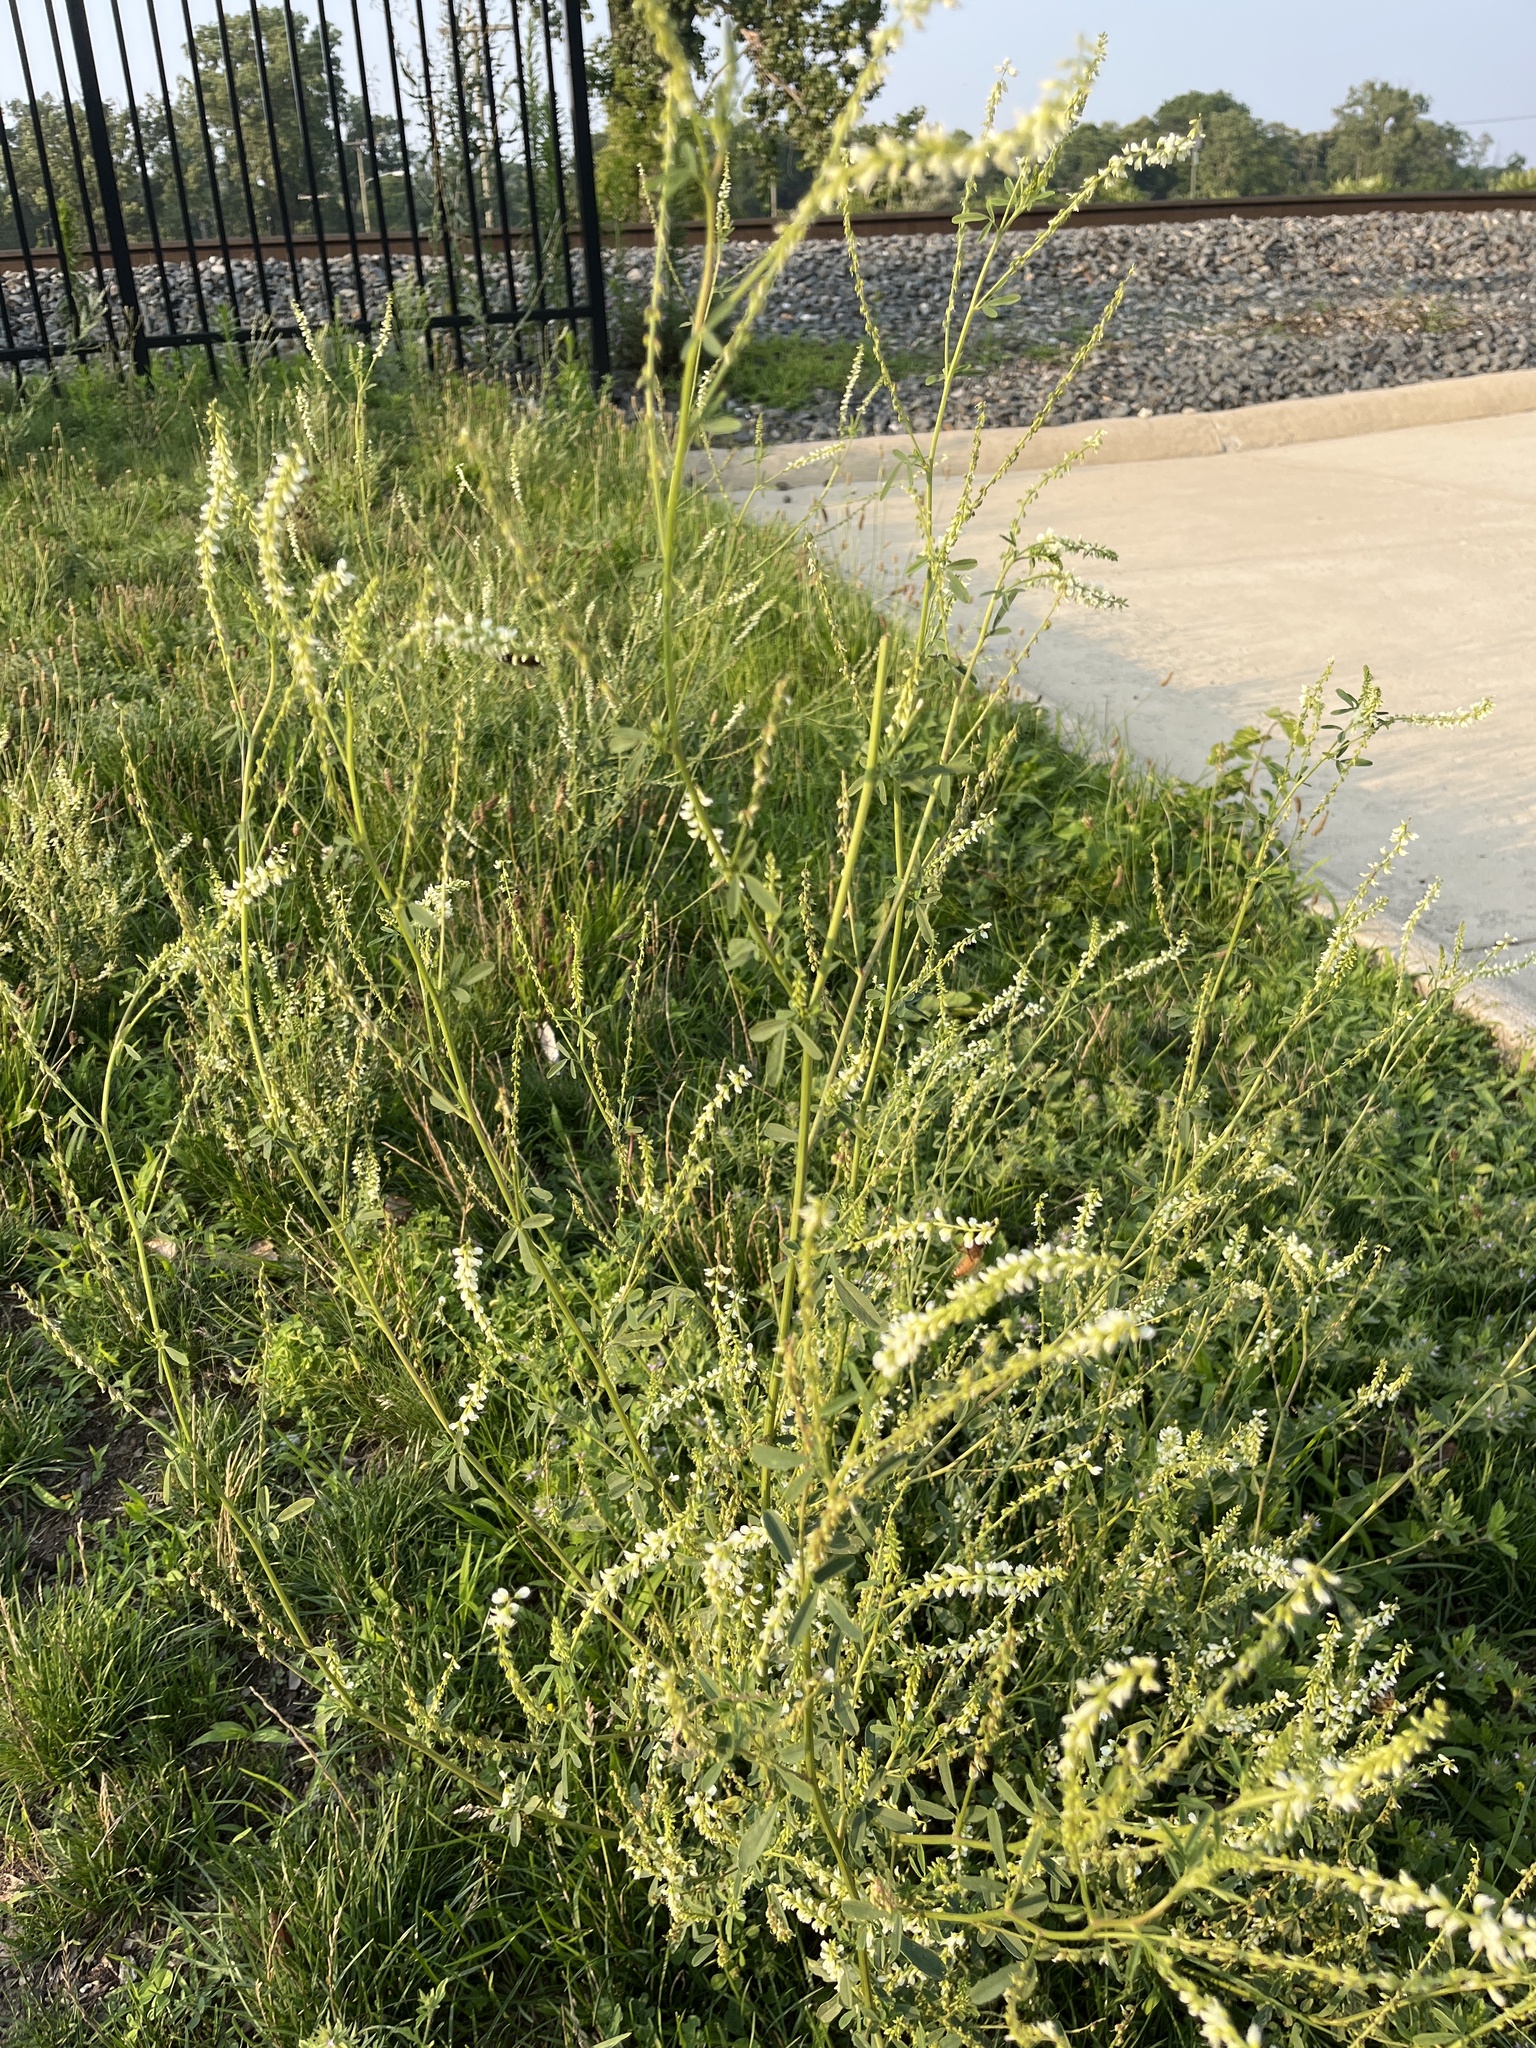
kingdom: Plantae
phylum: Tracheophyta
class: Magnoliopsida
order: Fabales
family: Fabaceae
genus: Melilotus
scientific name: Melilotus albus
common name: White melilot
